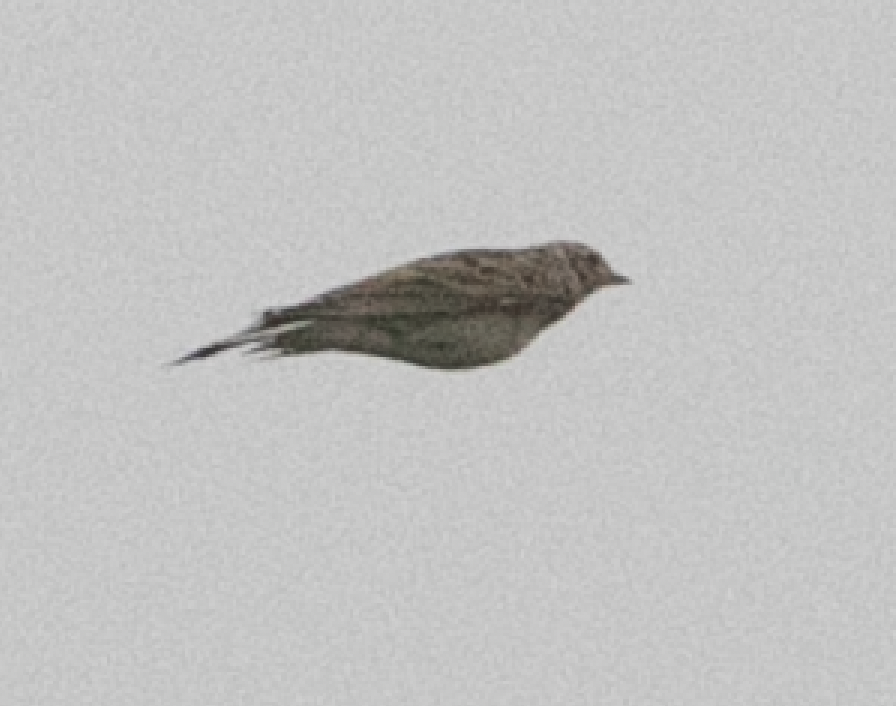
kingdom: Animalia
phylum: Chordata
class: Aves
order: Passeriformes
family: Alaudidae
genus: Alauda
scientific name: Alauda arvensis
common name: Eurasian skylark
